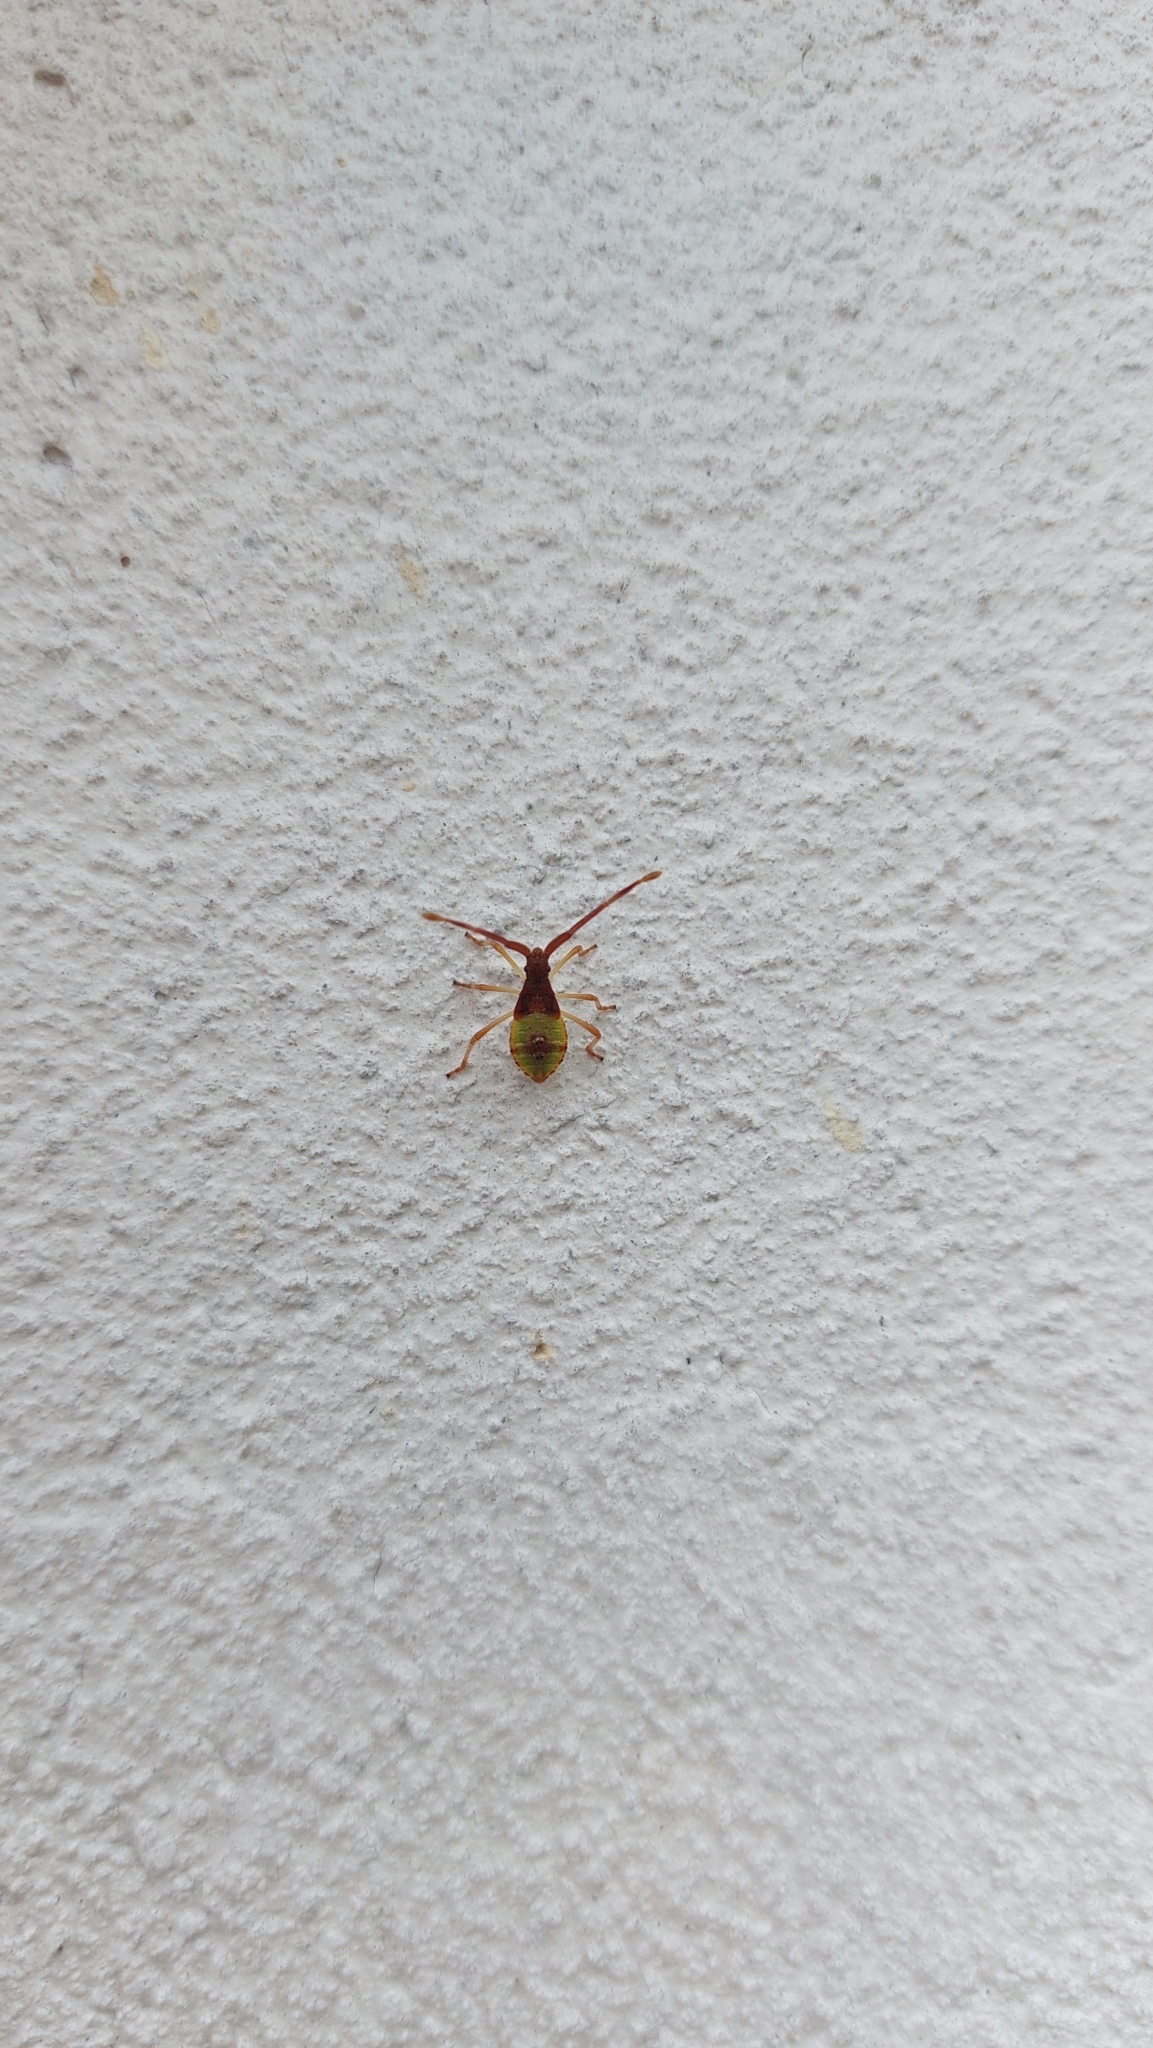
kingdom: Animalia
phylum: Arthropoda
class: Insecta
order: Hemiptera
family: Coreidae
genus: Gonocerus
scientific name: Gonocerus acuteangulatus
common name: Box bug
